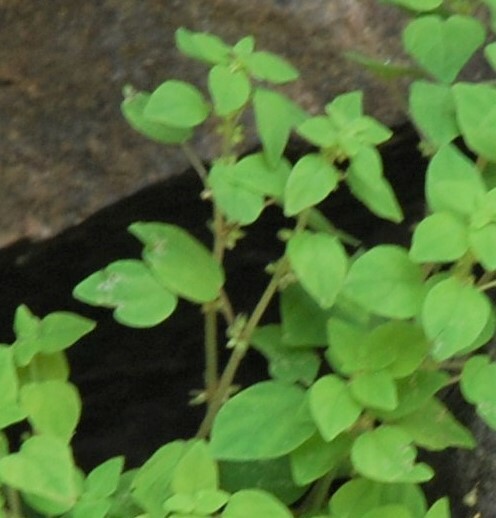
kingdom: Plantae
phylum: Tracheophyta
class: Magnoliopsida
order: Rosales
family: Urticaceae
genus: Parietaria
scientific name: Parietaria micrantha
